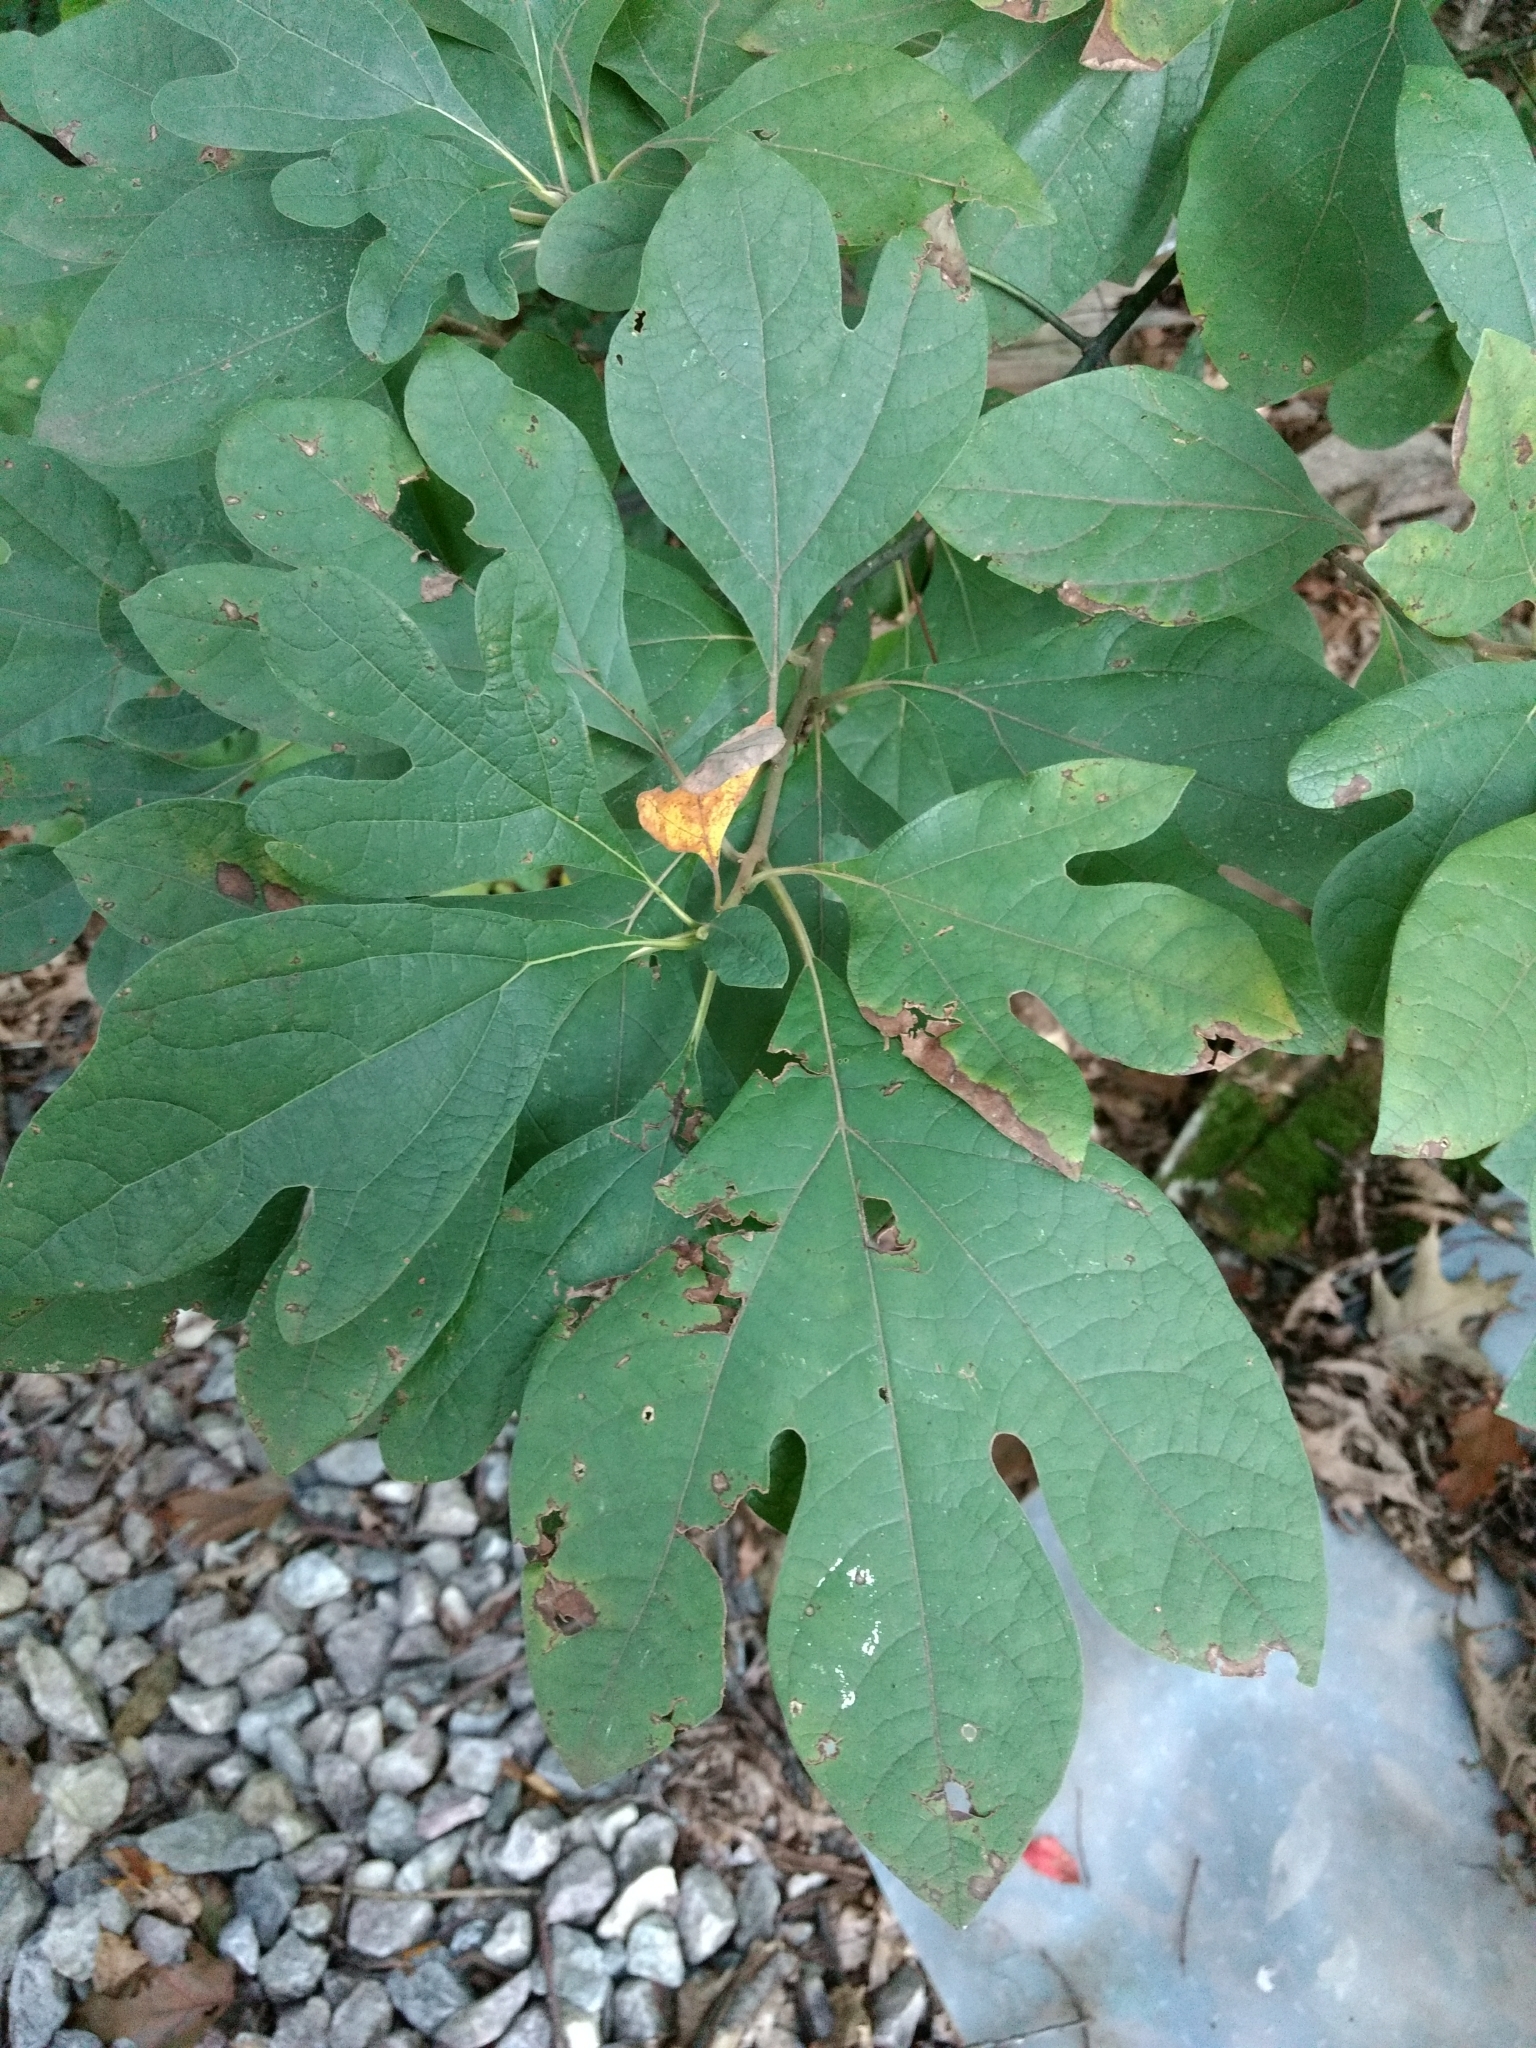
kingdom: Plantae
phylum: Tracheophyta
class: Magnoliopsida
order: Laurales
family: Lauraceae
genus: Sassafras
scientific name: Sassafras albidum
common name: Sassafras
